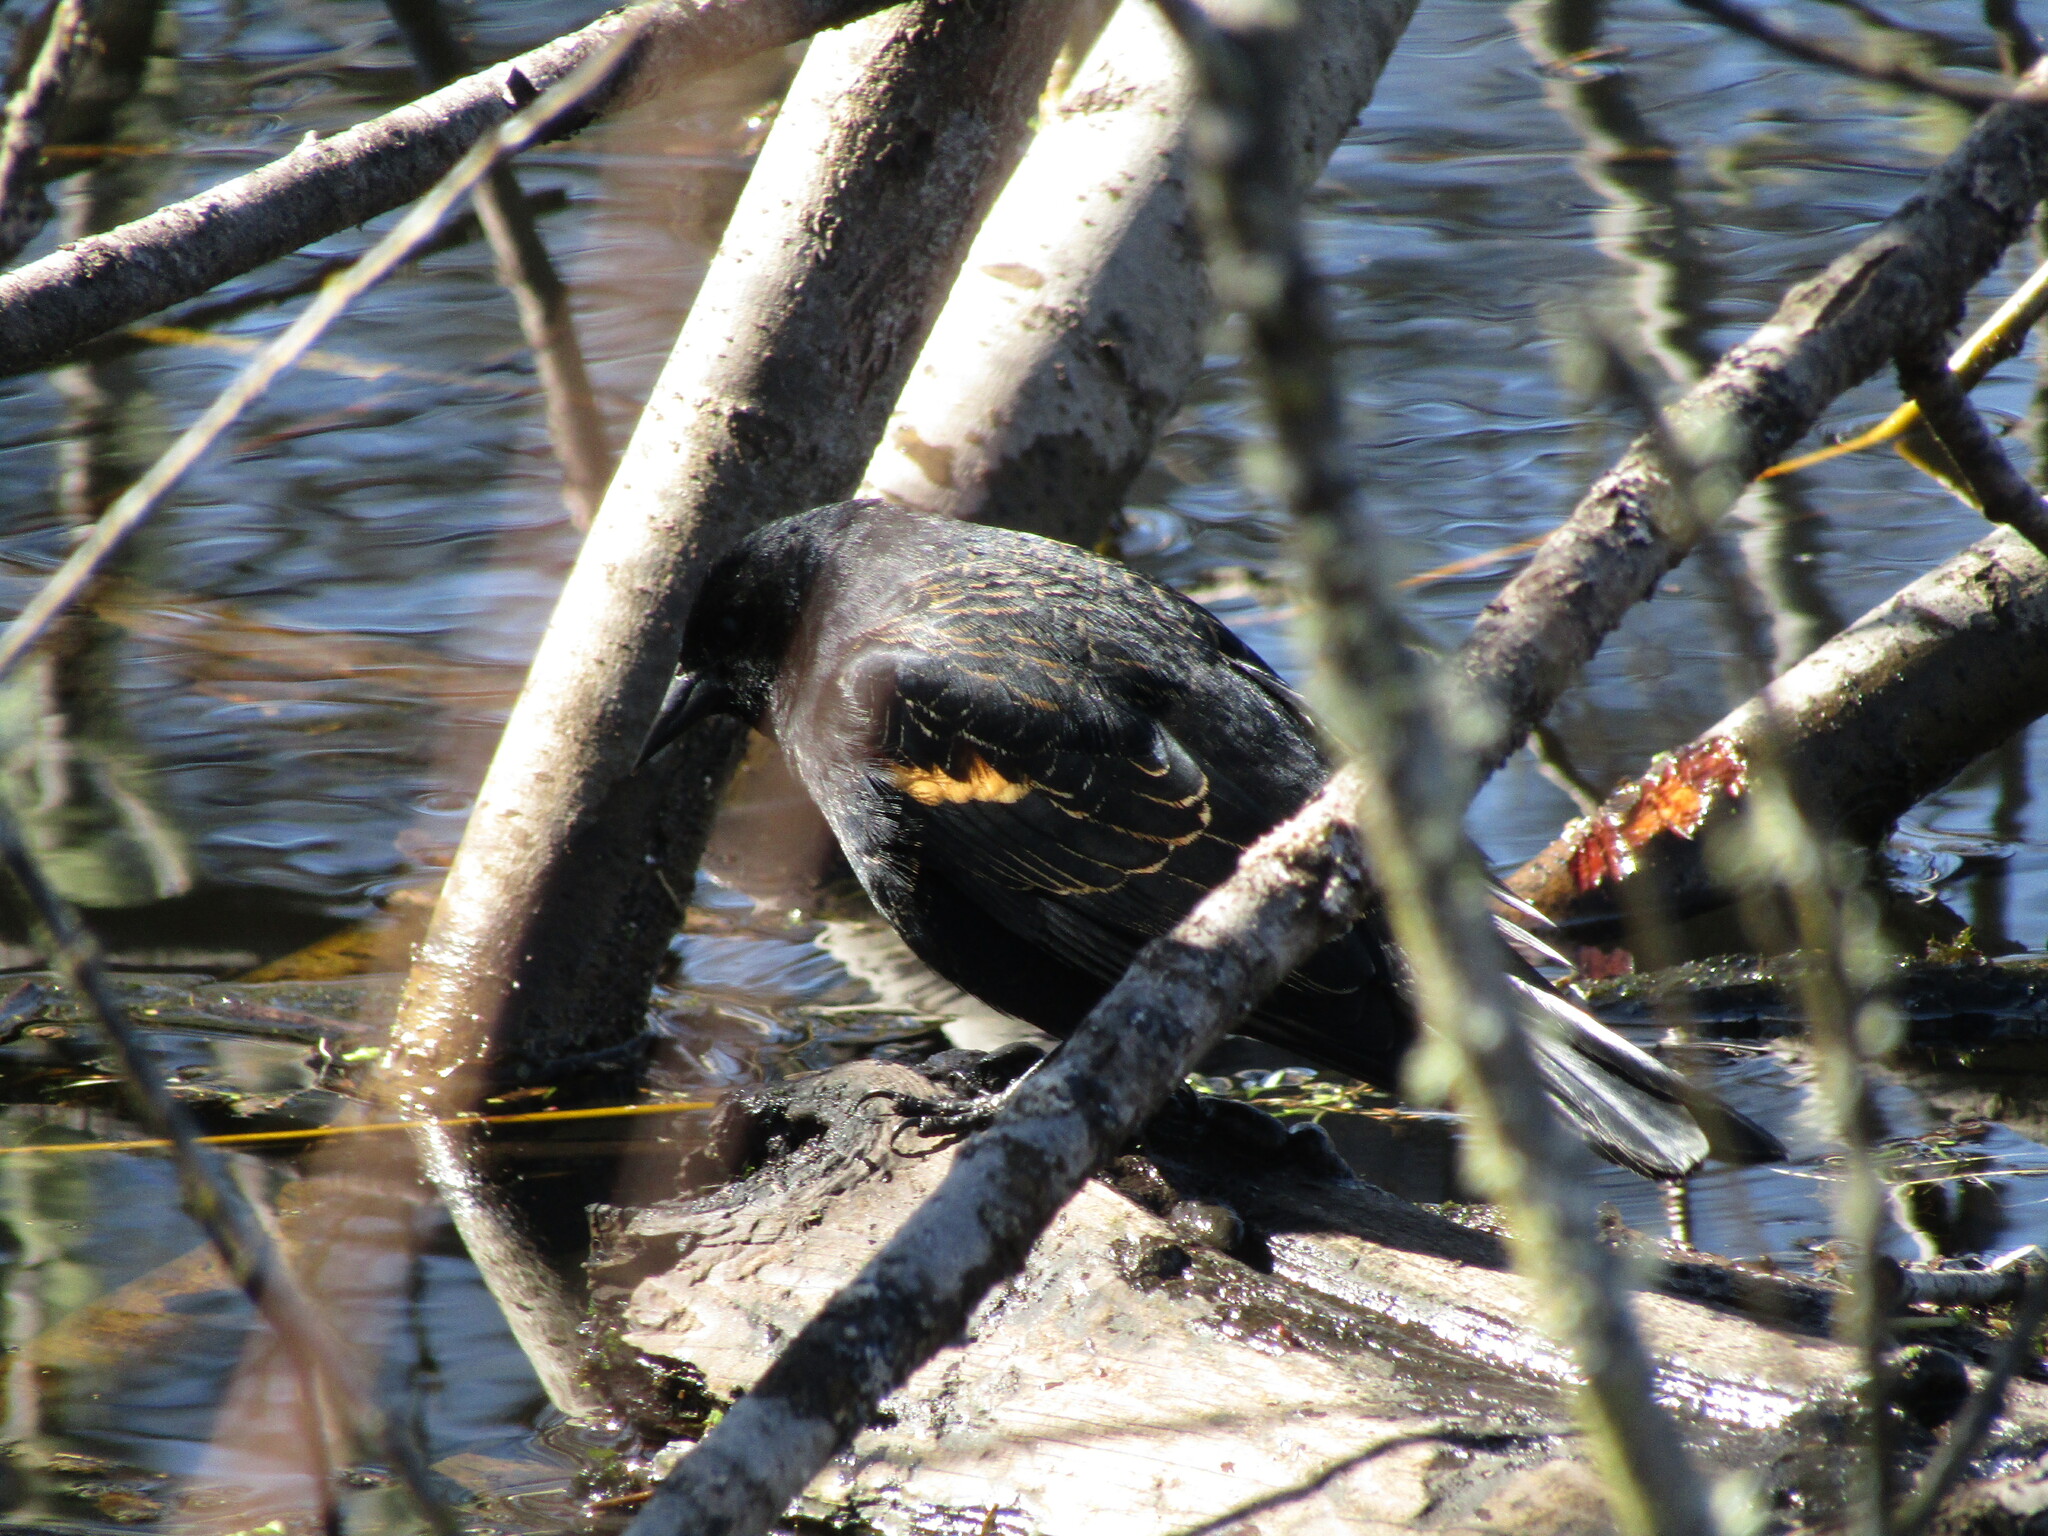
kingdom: Animalia
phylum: Chordata
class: Aves
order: Passeriformes
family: Icteridae
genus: Agelaius
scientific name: Agelaius phoeniceus
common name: Red-winged blackbird
